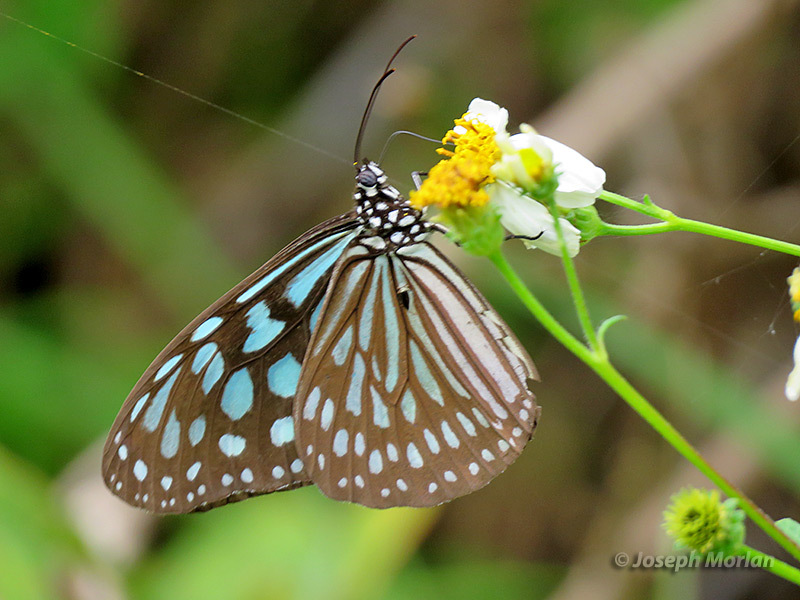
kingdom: Animalia
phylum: Arthropoda
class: Insecta
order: Lepidoptera
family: Nymphalidae
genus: Ideopsis
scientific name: Ideopsis similis
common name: Ceylon blue glassy tiger
